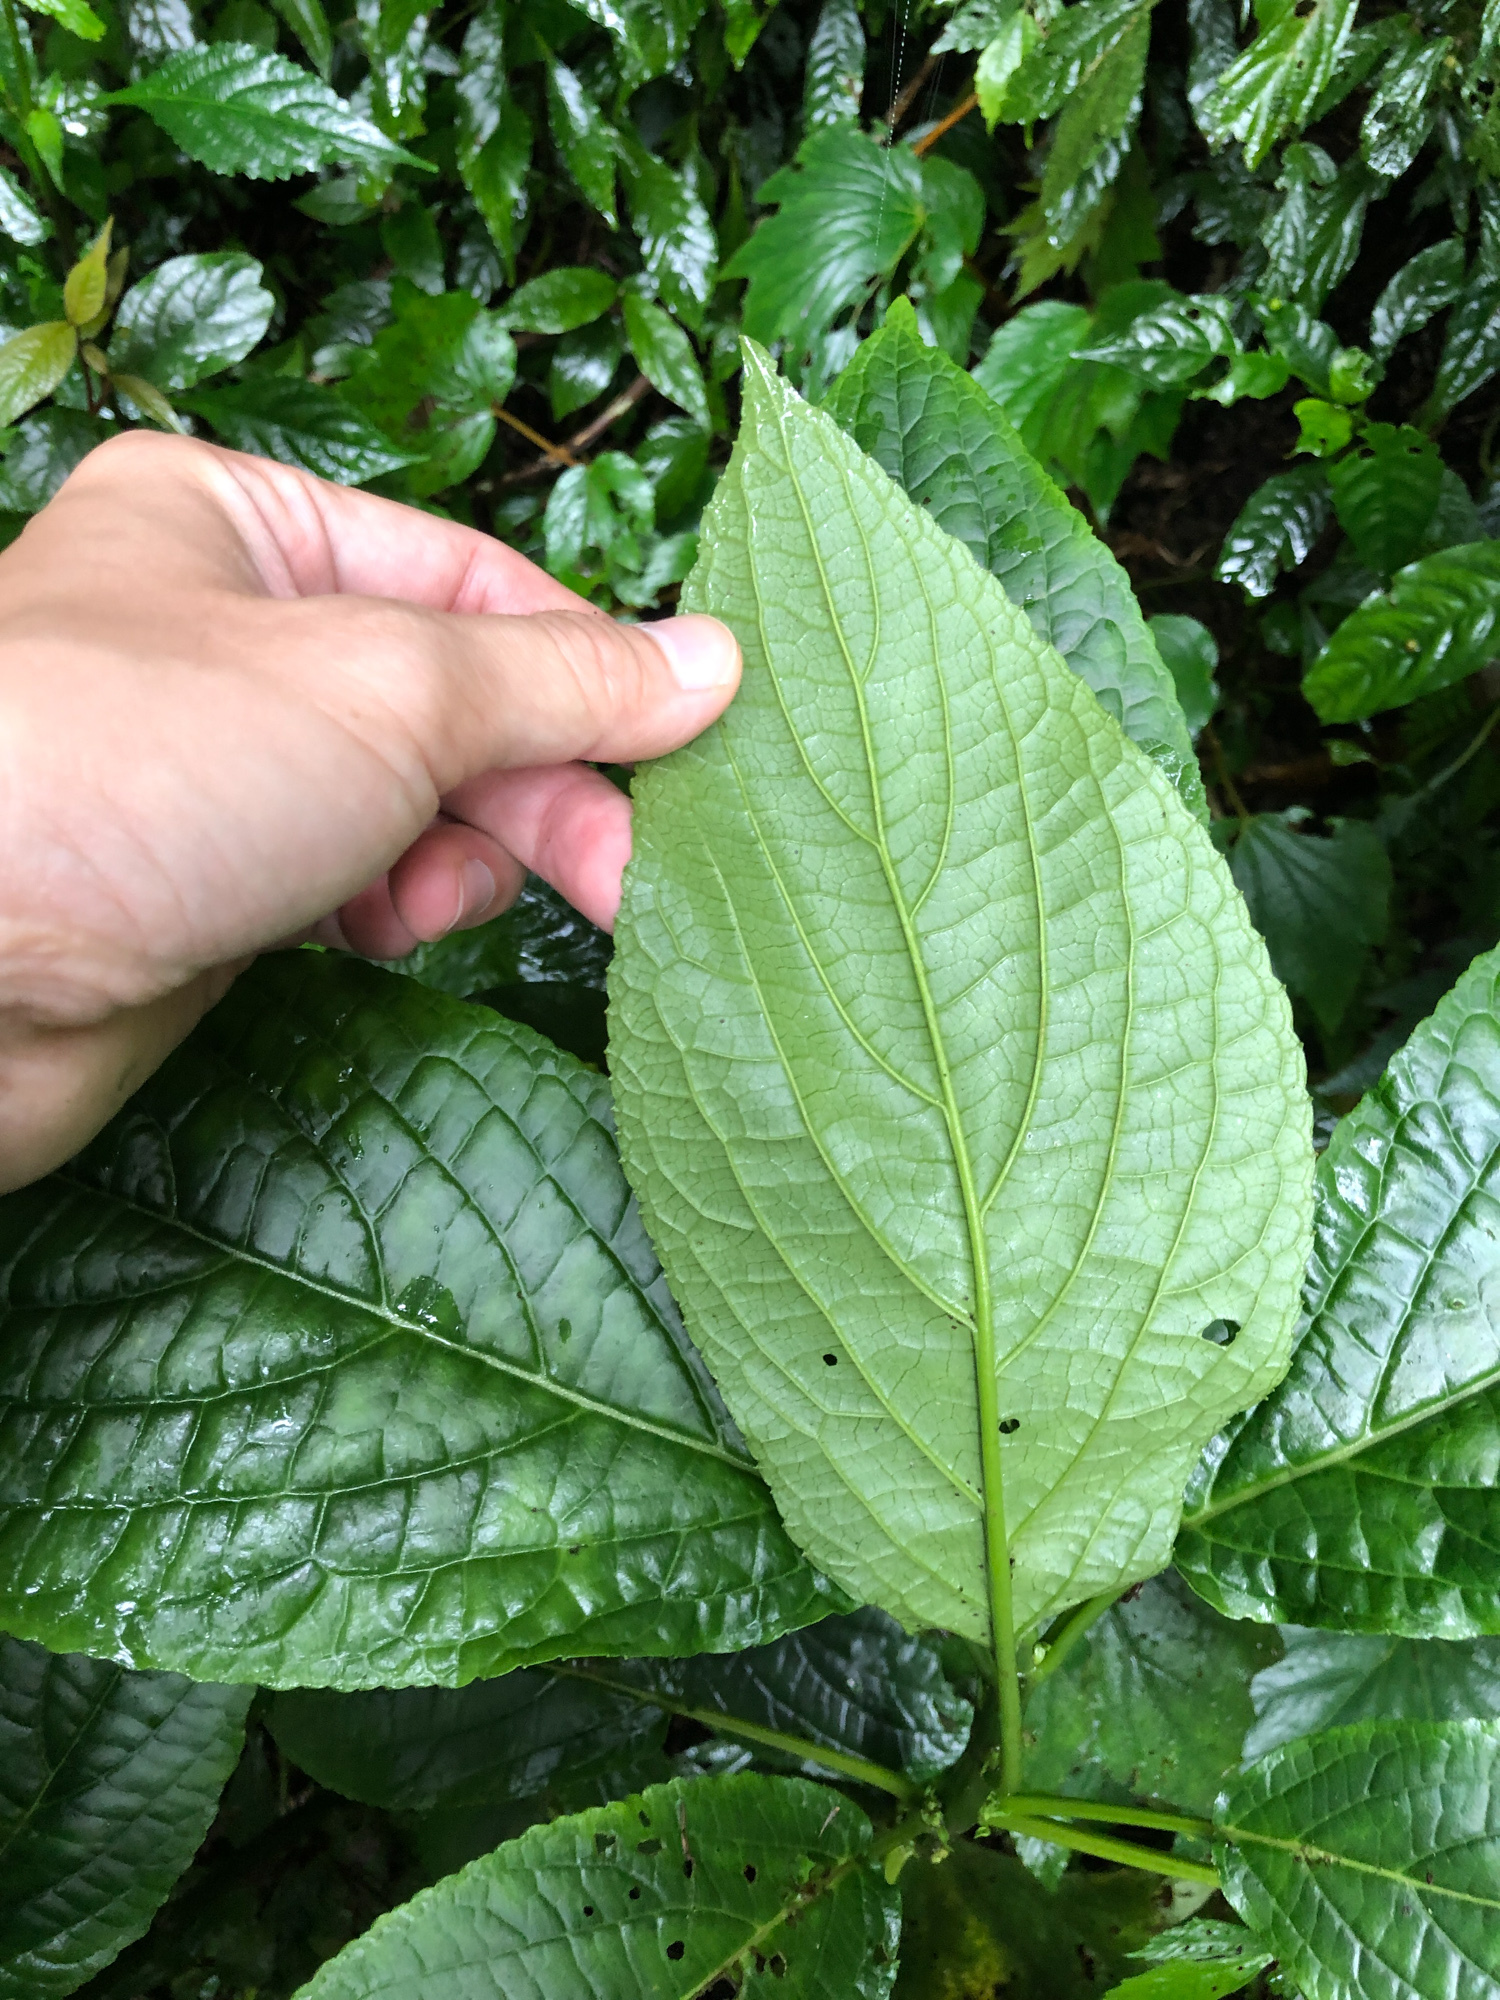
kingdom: Plantae
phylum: Tracheophyta
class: Magnoliopsida
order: Lamiales
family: Lamiaceae
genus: Paraphlomis
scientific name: Paraphlomis javanica
